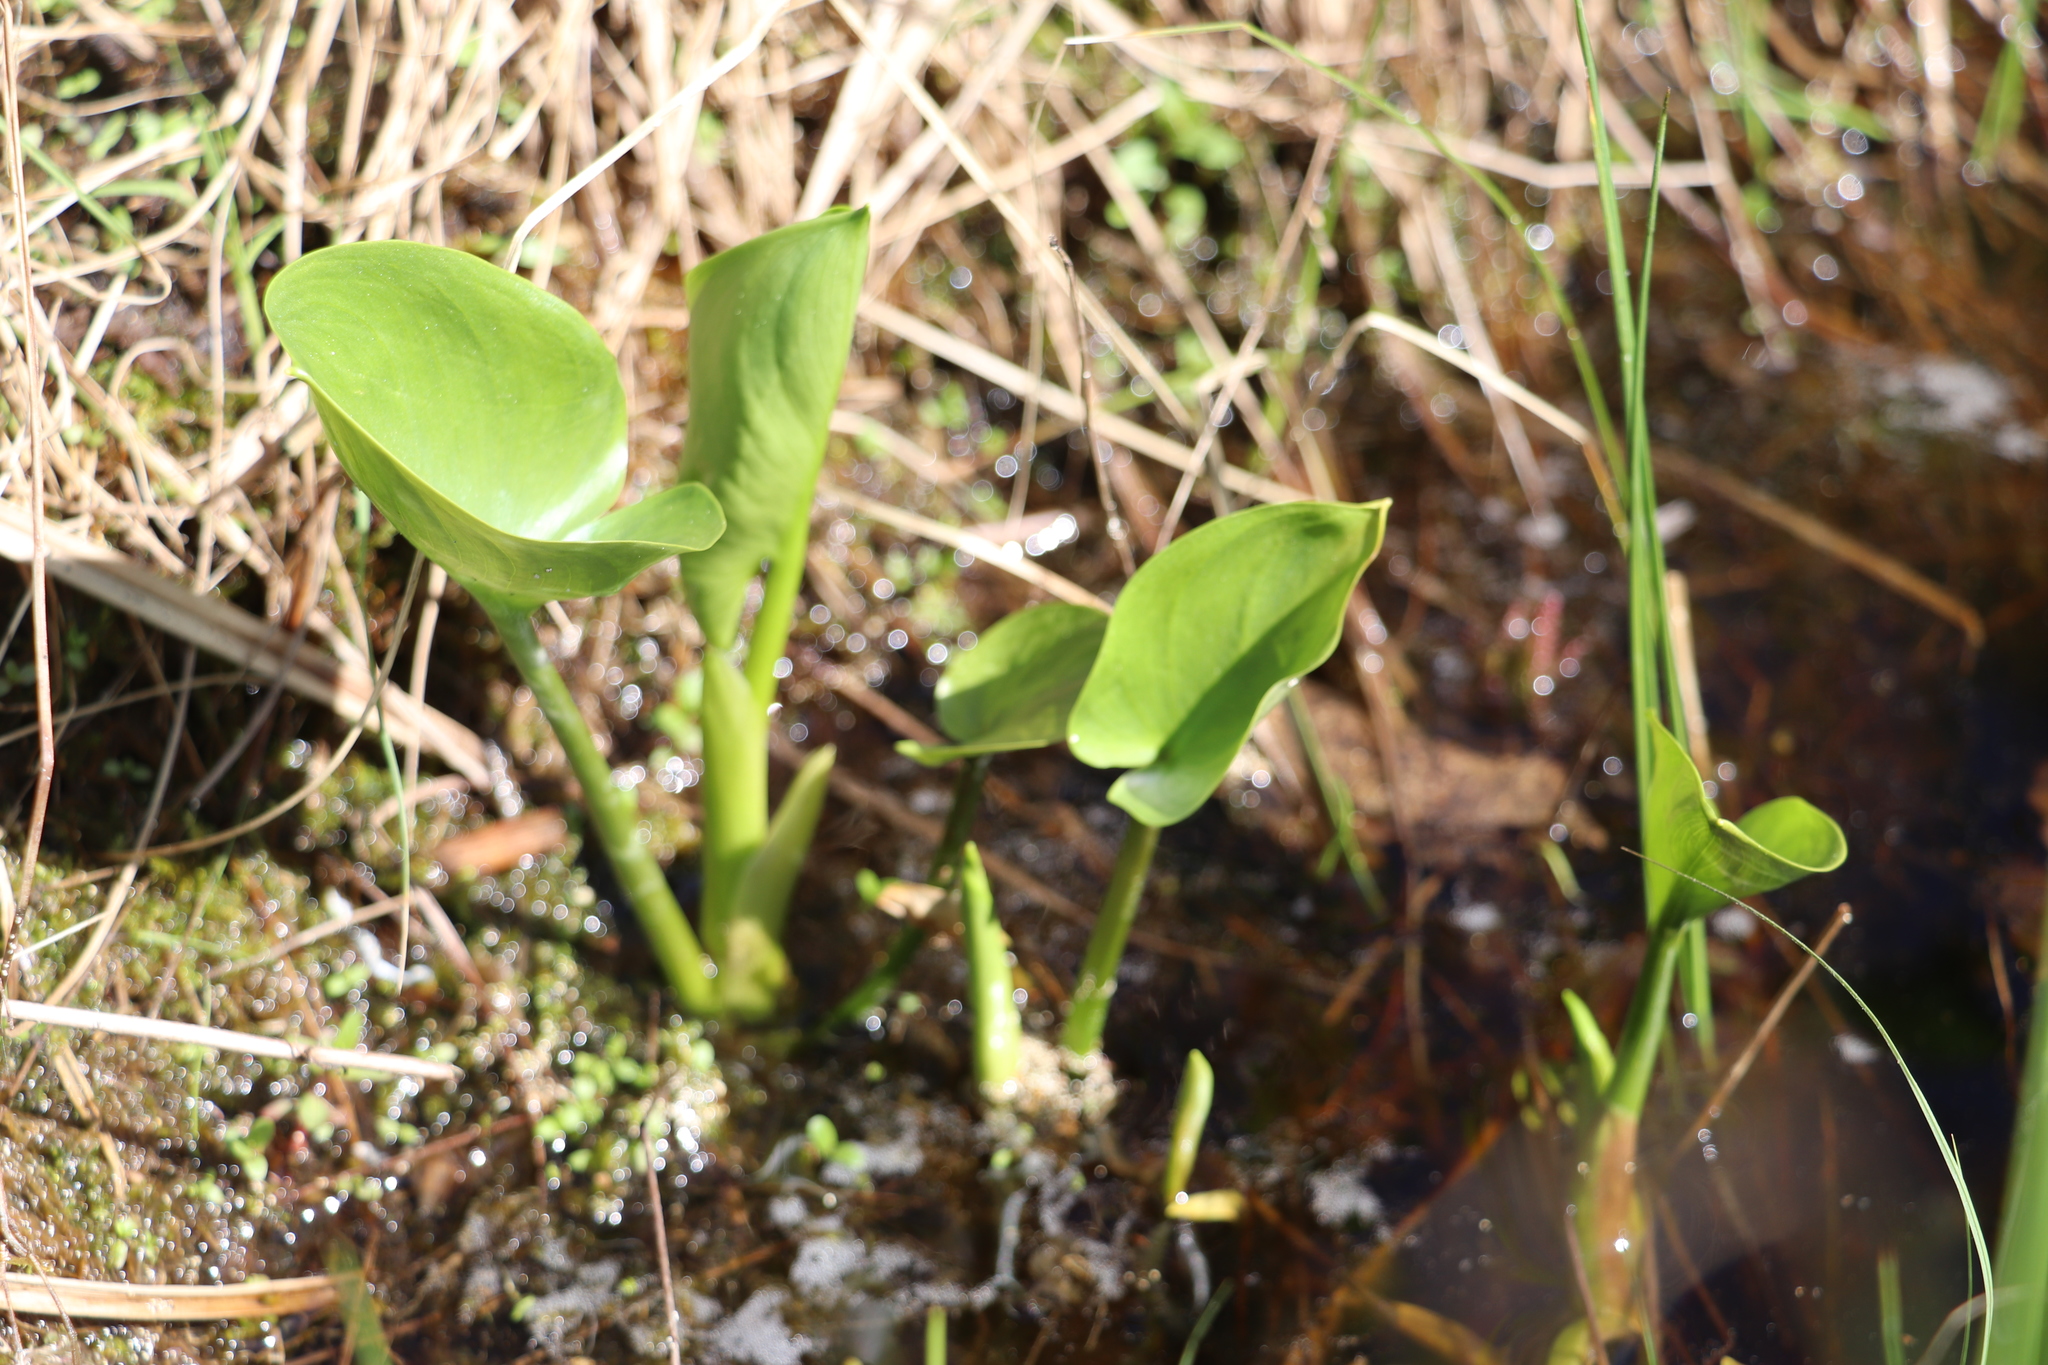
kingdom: Plantae
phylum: Tracheophyta
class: Liliopsida
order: Alismatales
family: Araceae
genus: Calla
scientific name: Calla palustris
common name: Bog arum
